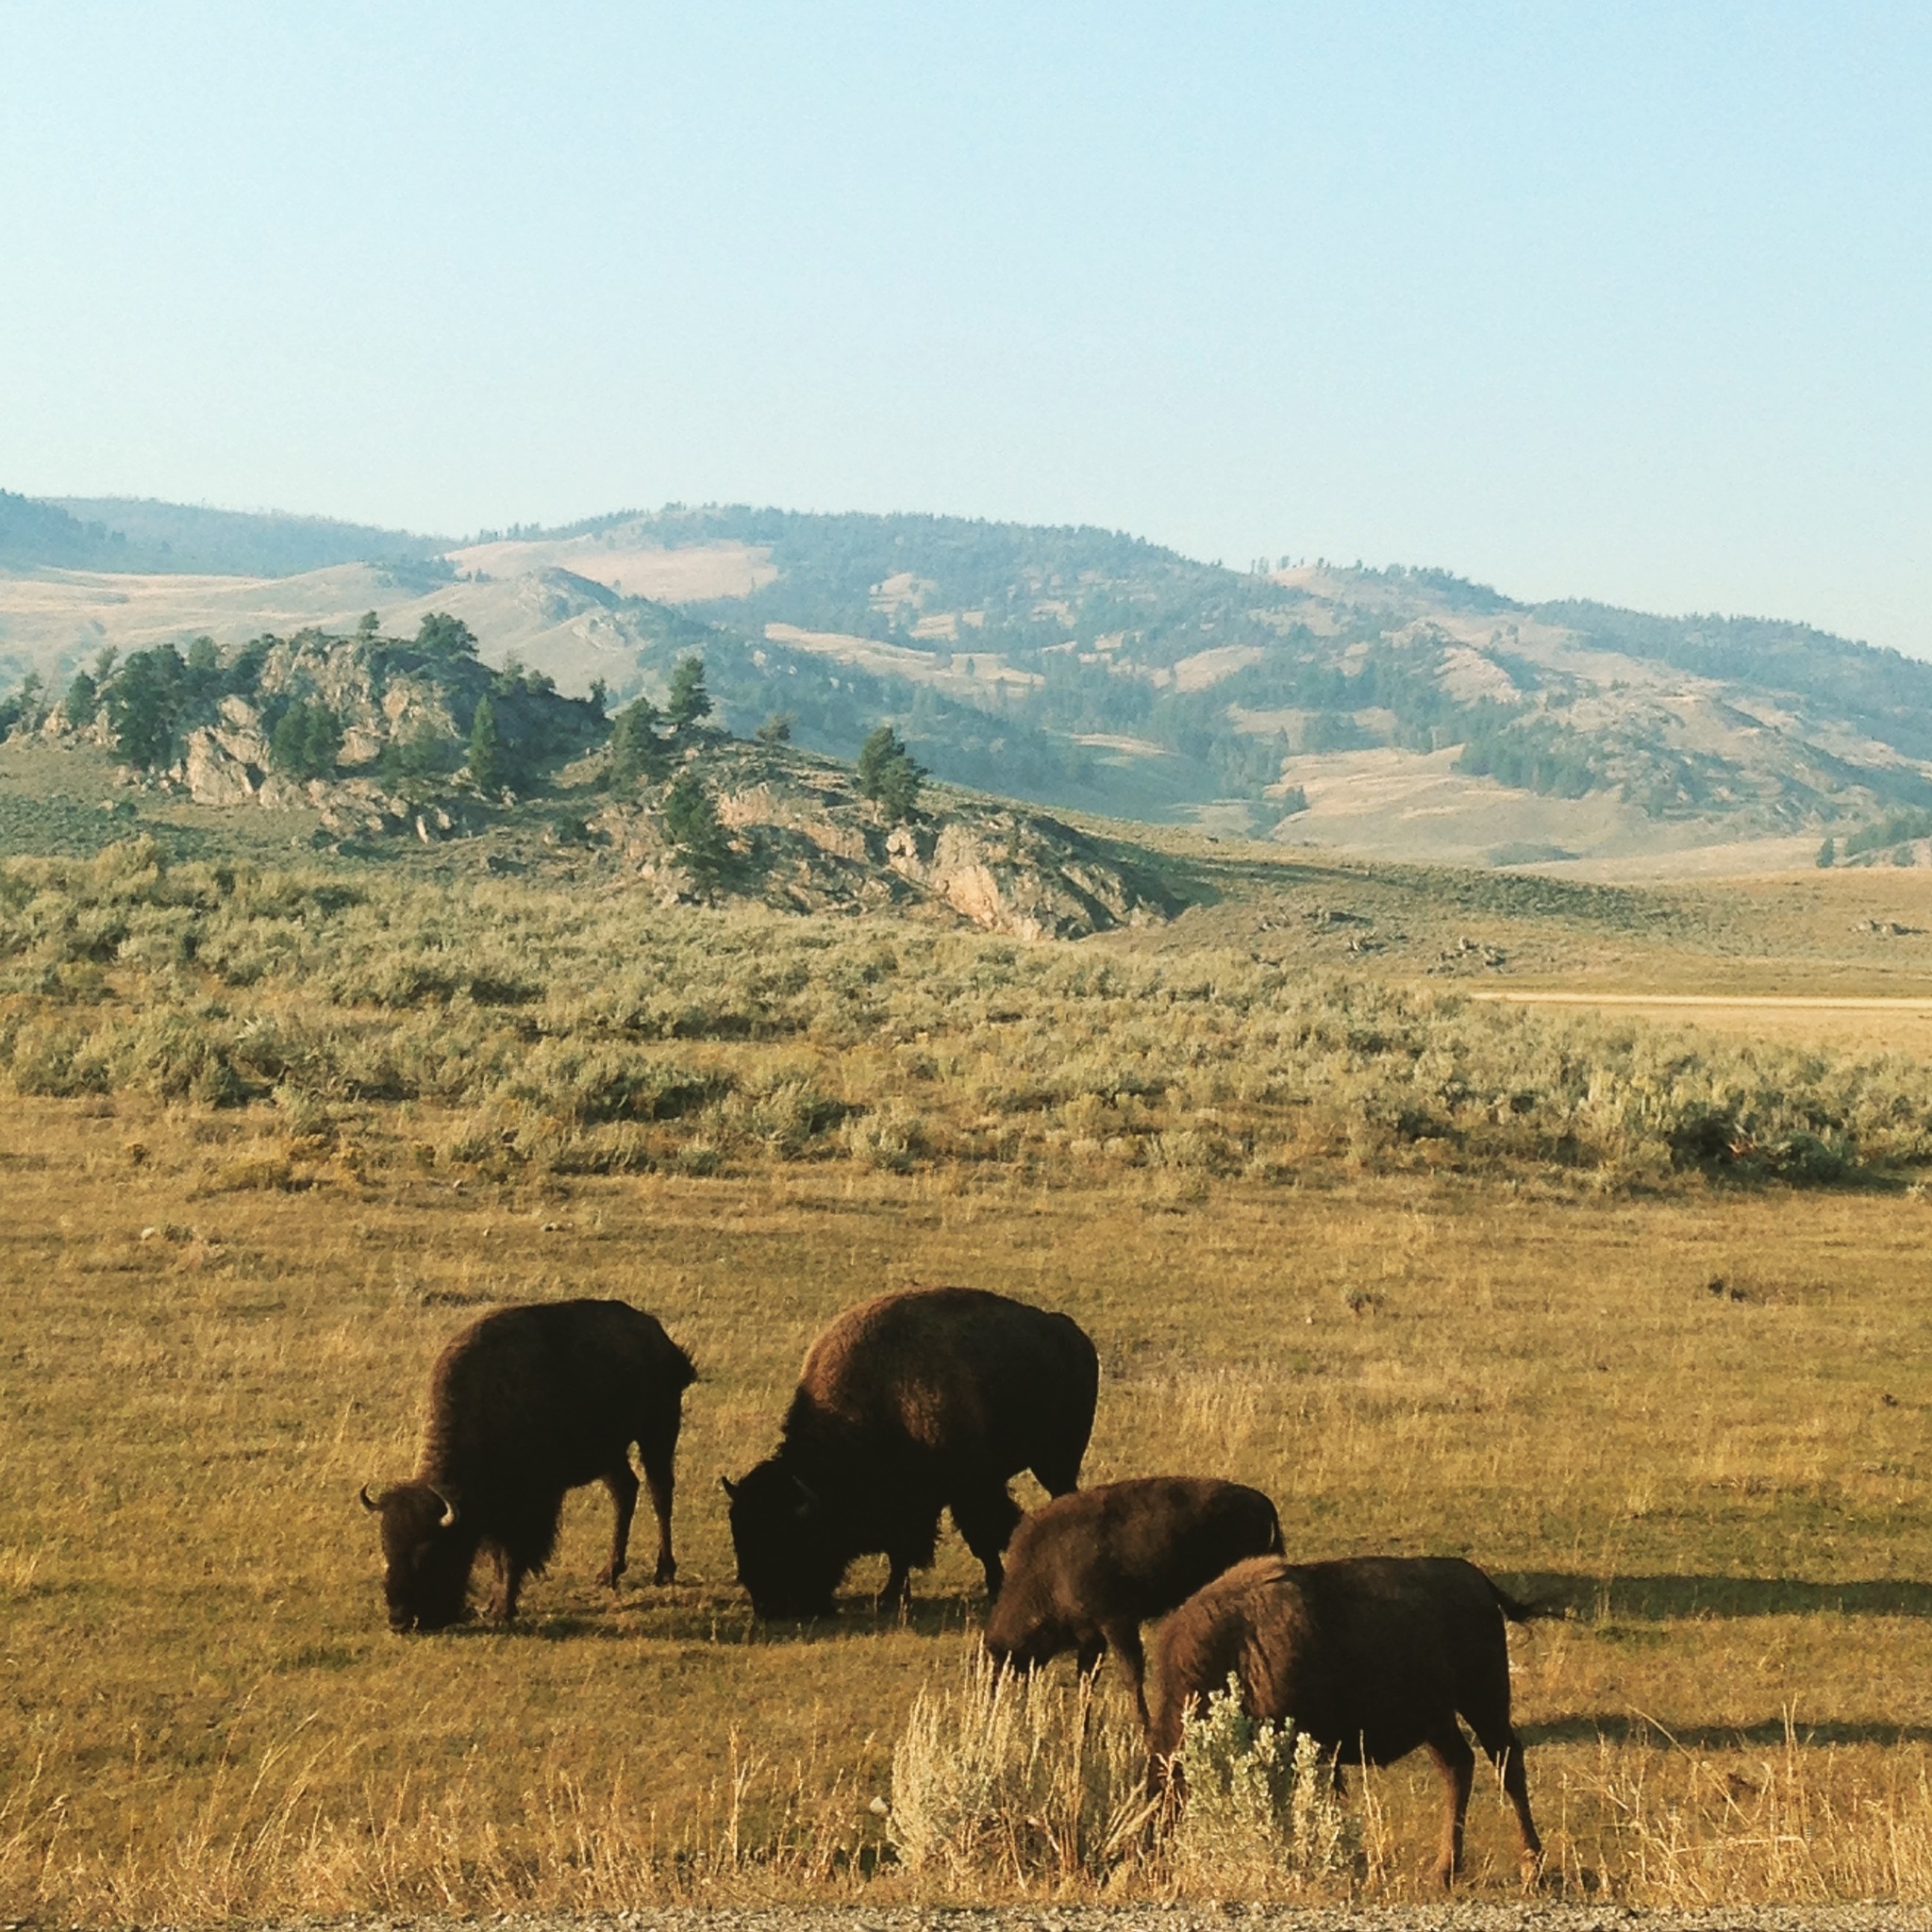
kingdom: Animalia
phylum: Chordata
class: Mammalia
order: Artiodactyla
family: Bovidae
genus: Bison
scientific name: Bison bison
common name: American bison
